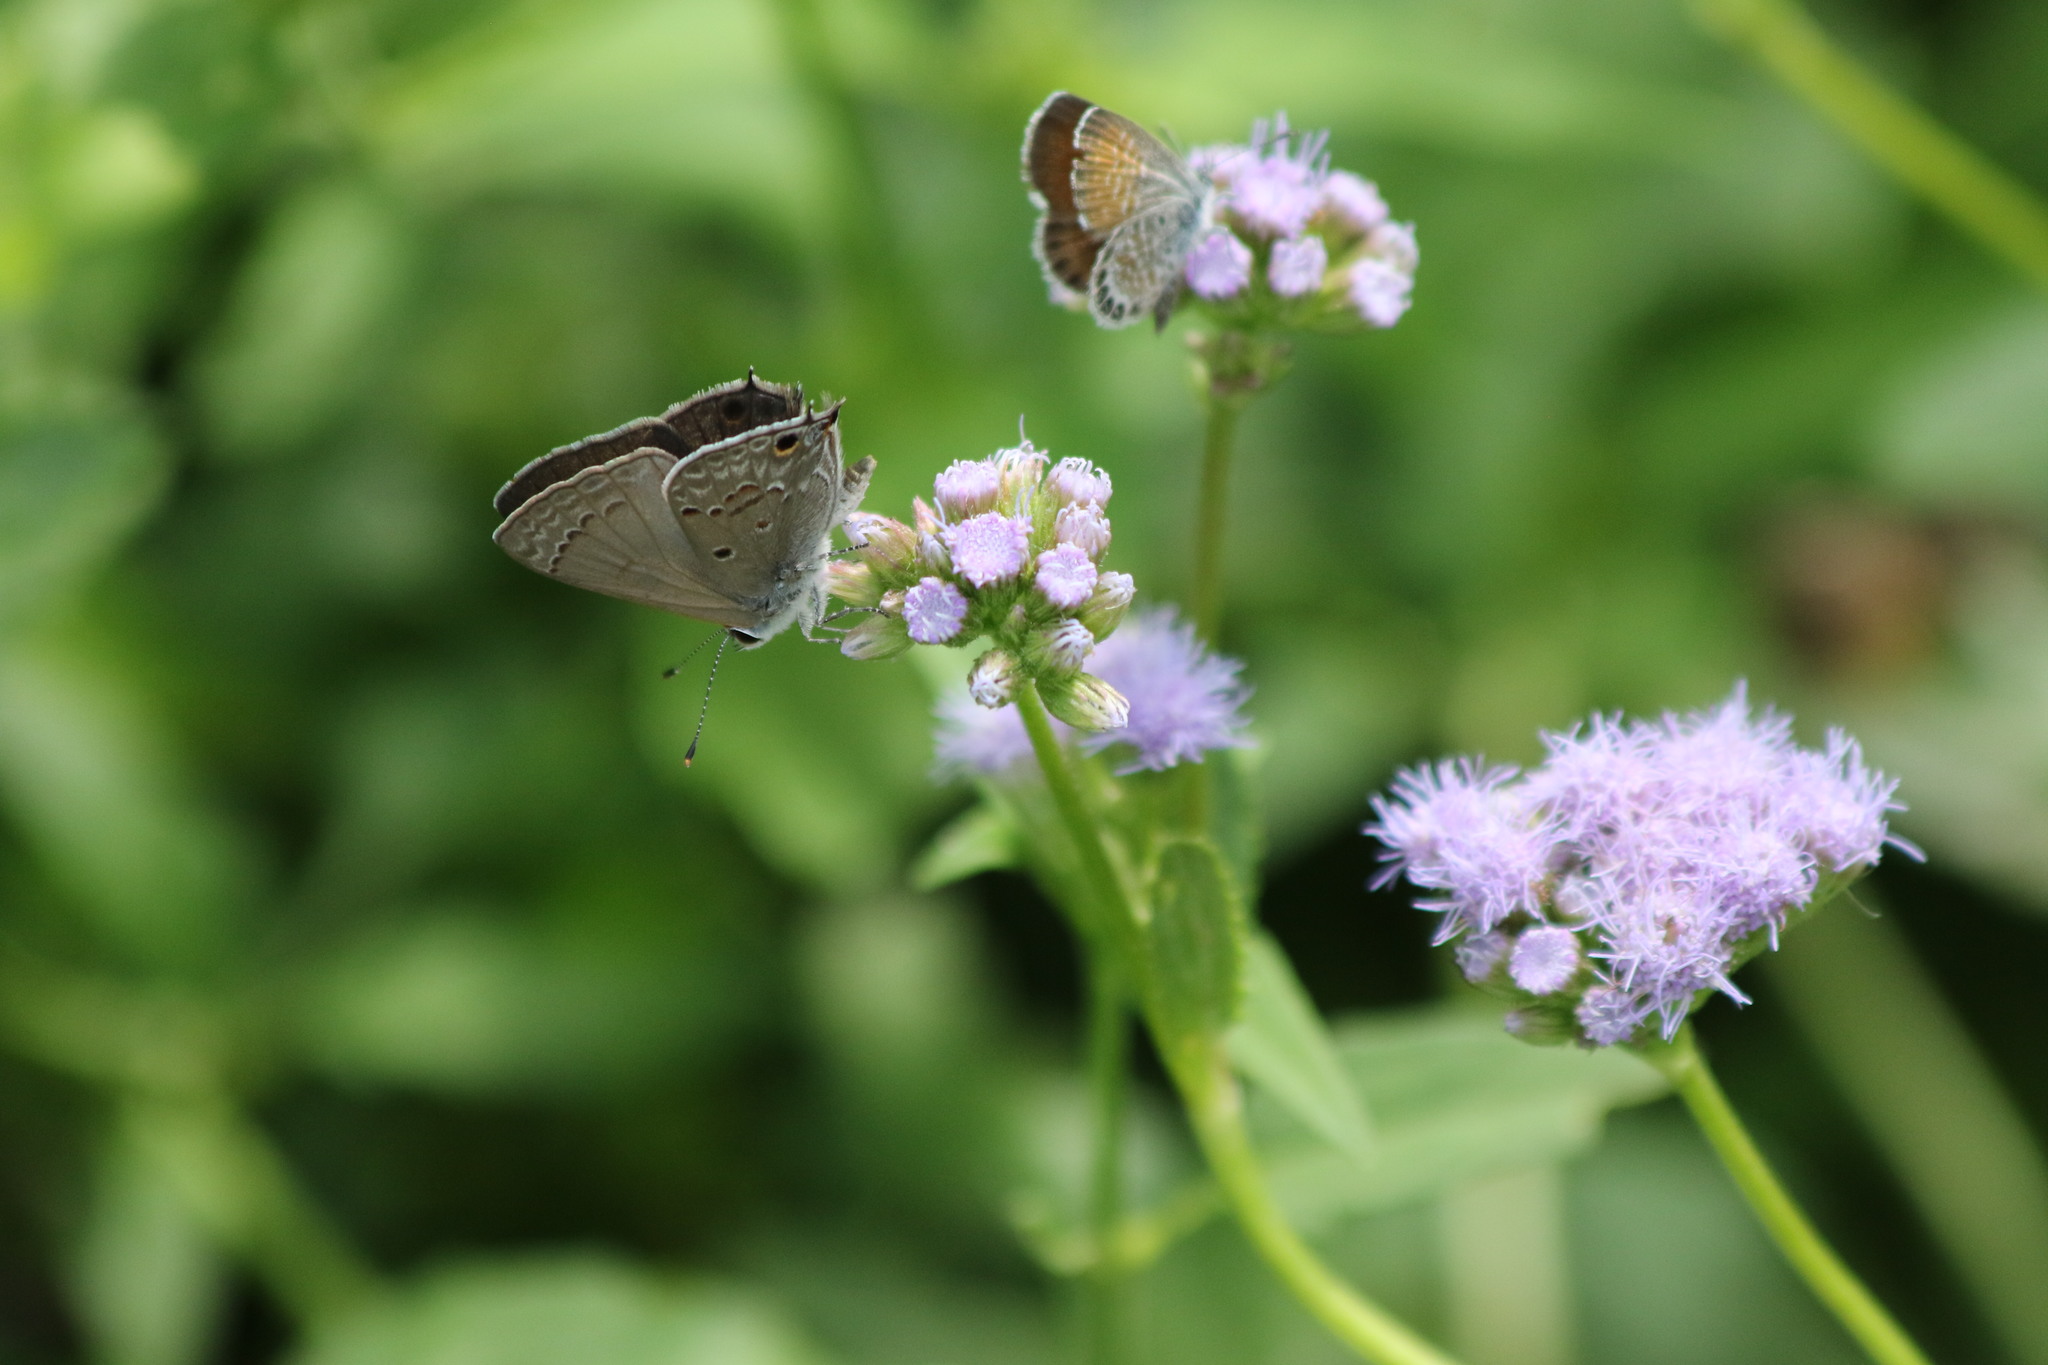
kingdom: Animalia
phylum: Arthropoda
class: Insecta
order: Lepidoptera
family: Lycaenidae
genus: Callicista
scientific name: Callicista columella
